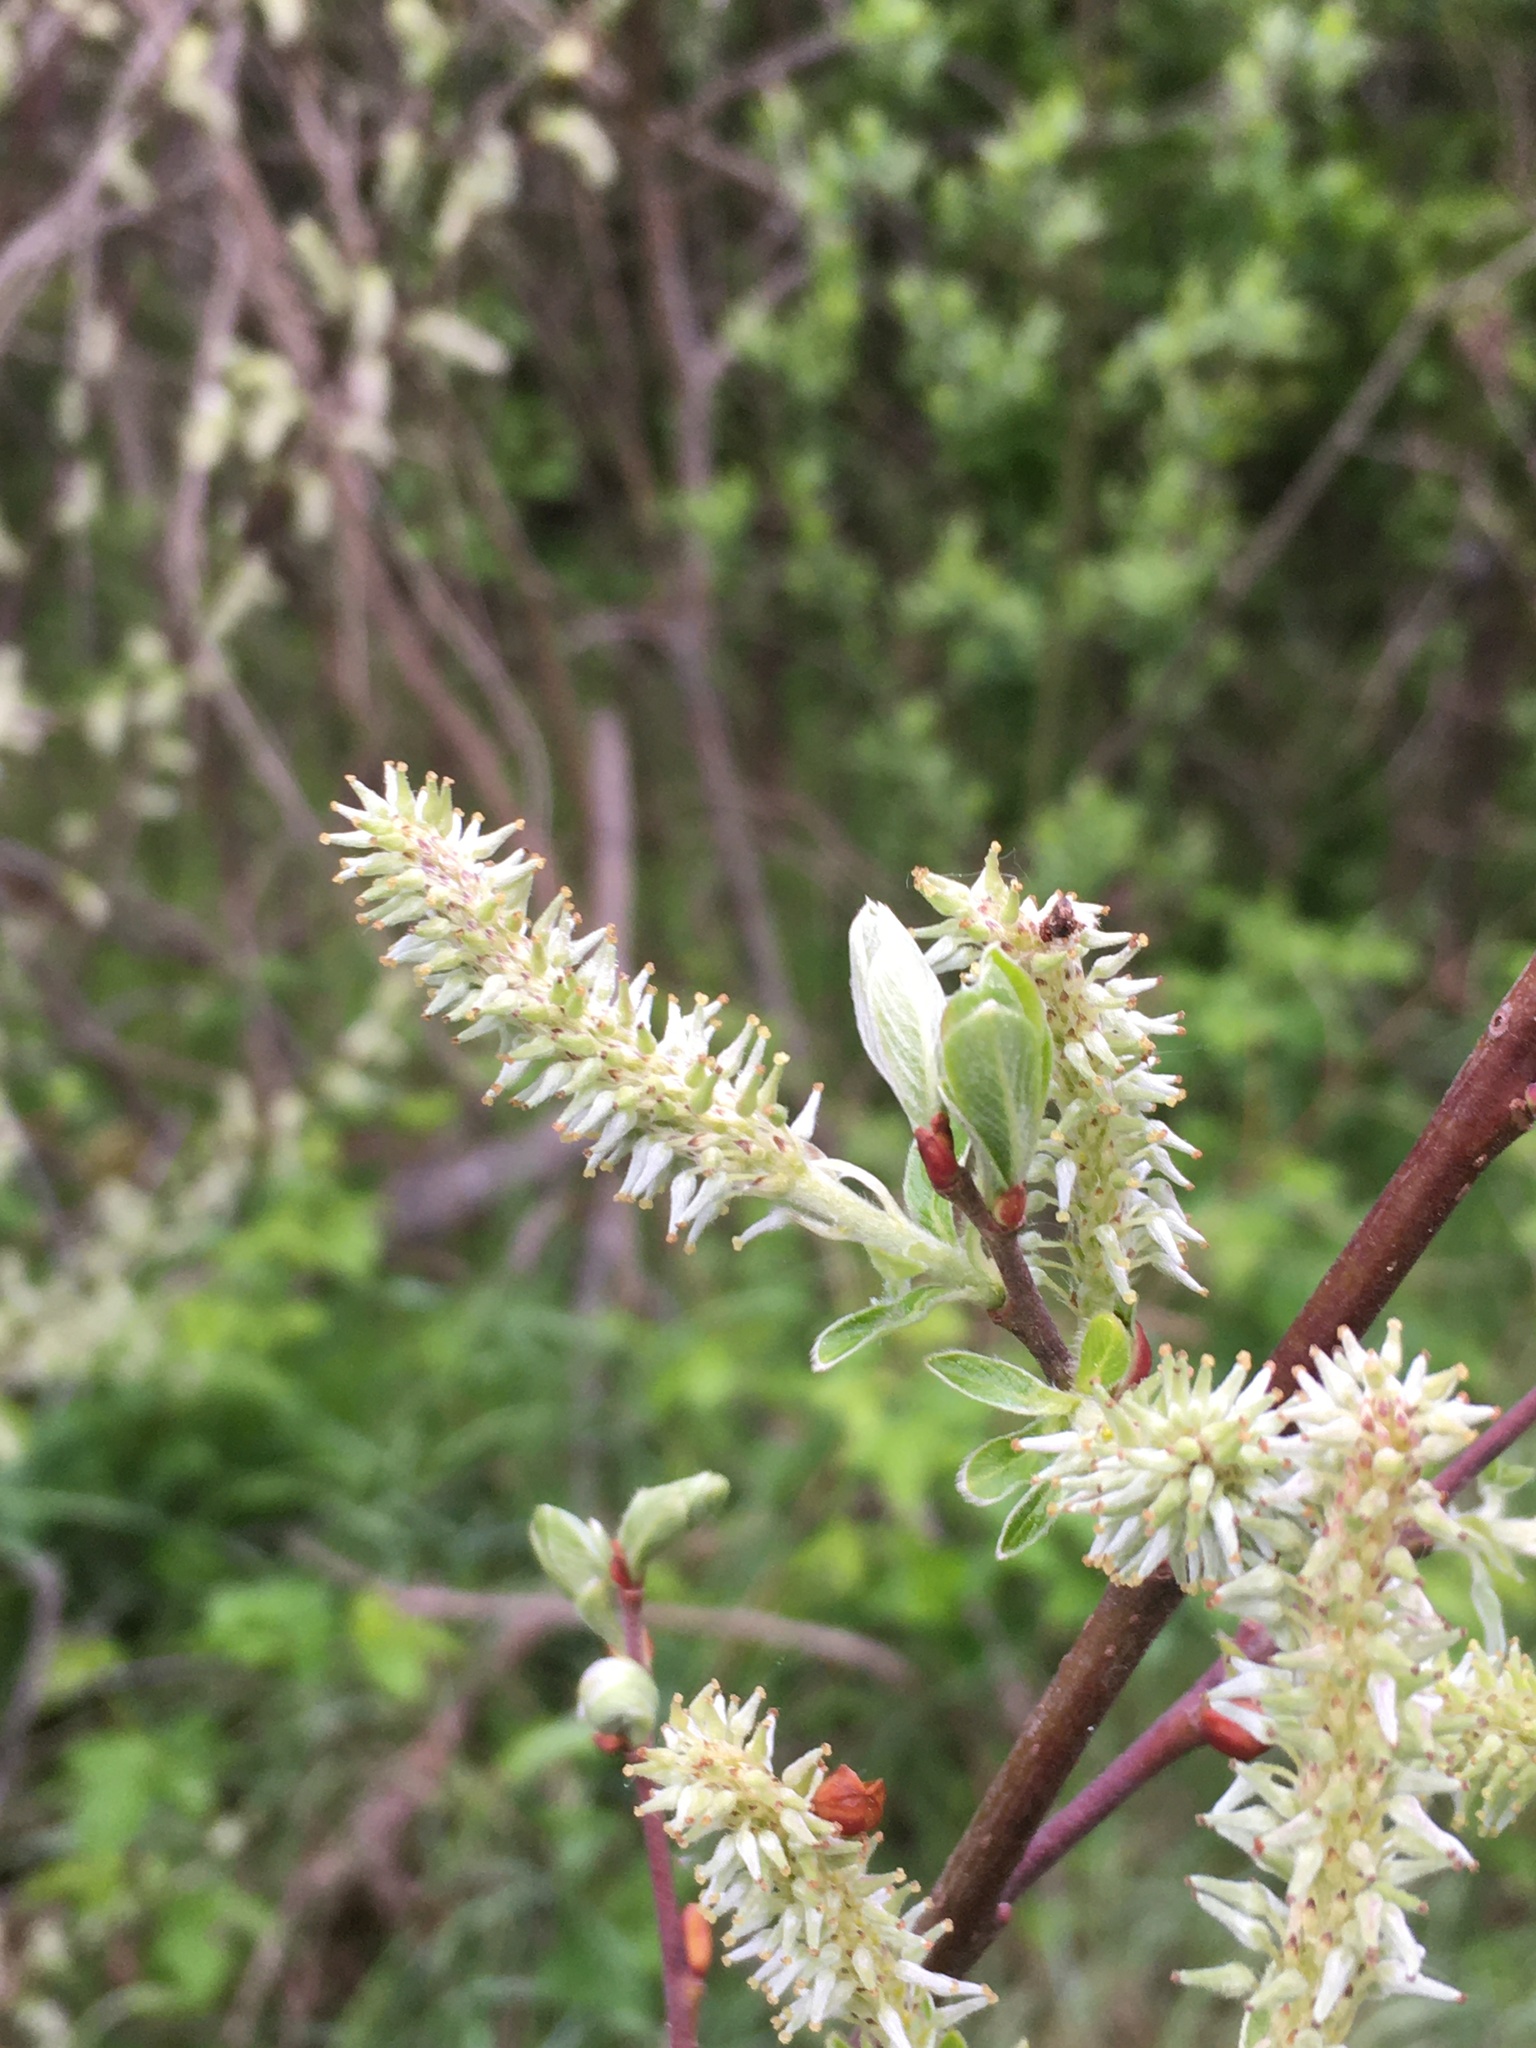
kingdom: Plantae
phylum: Tracheophyta
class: Magnoliopsida
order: Malpighiales
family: Salicaceae
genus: Salix
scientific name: Salix cinerea
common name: Common sallow
